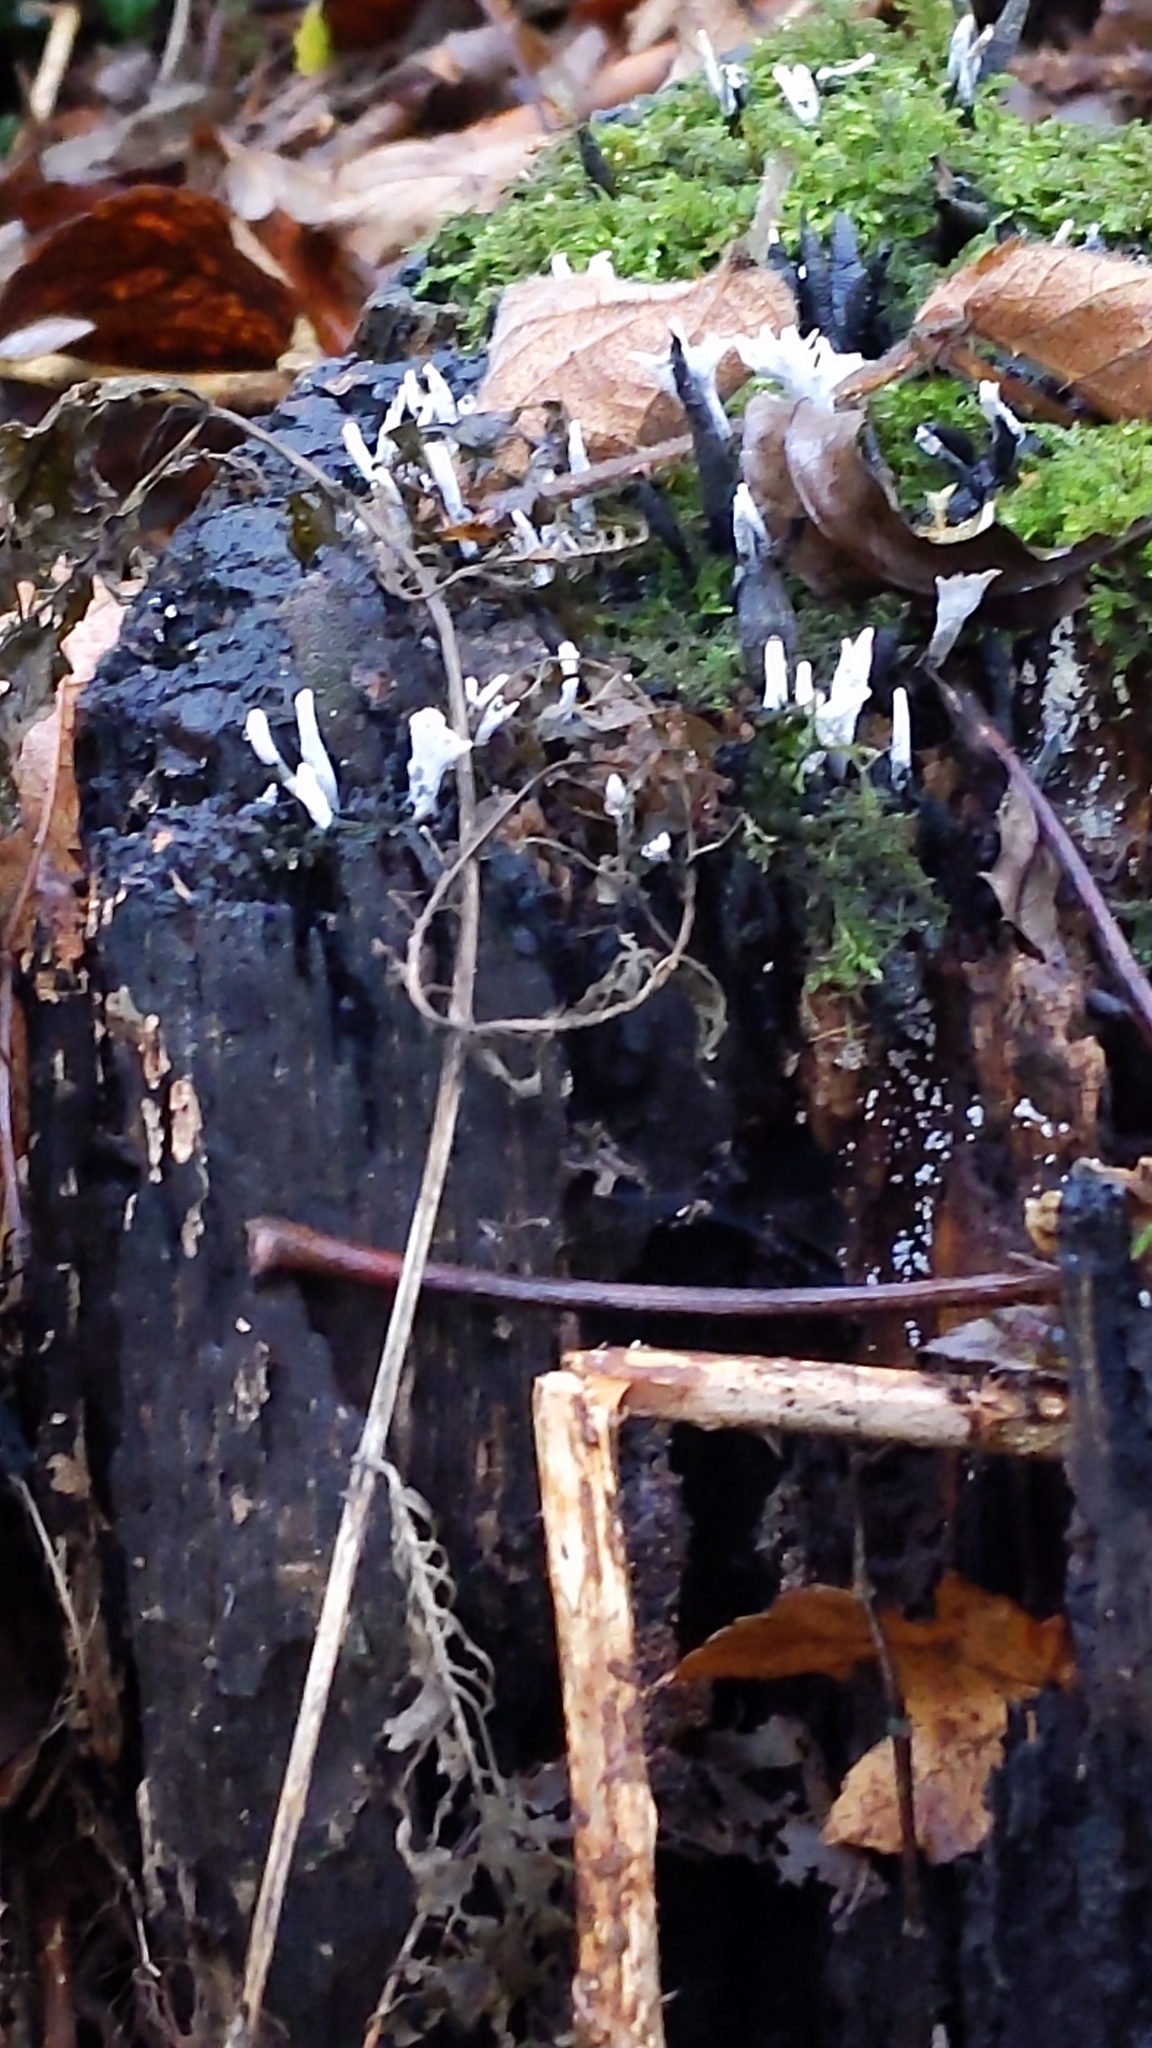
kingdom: Fungi
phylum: Ascomycota
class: Sordariomycetes
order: Xylariales
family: Xylariaceae
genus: Xylaria
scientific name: Xylaria hypoxylon
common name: Candle-snuff fungus
